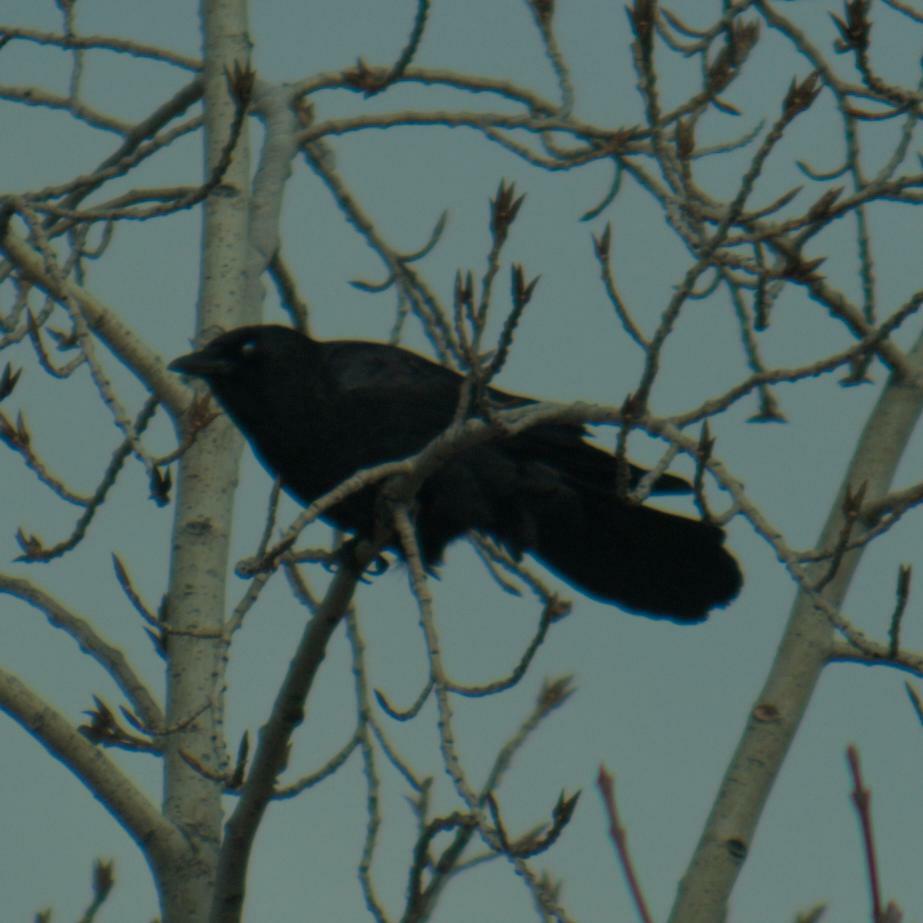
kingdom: Animalia
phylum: Chordata
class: Aves
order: Passeriformes
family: Corvidae
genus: Corvus
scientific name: Corvus brachyrhynchos
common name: American crow
